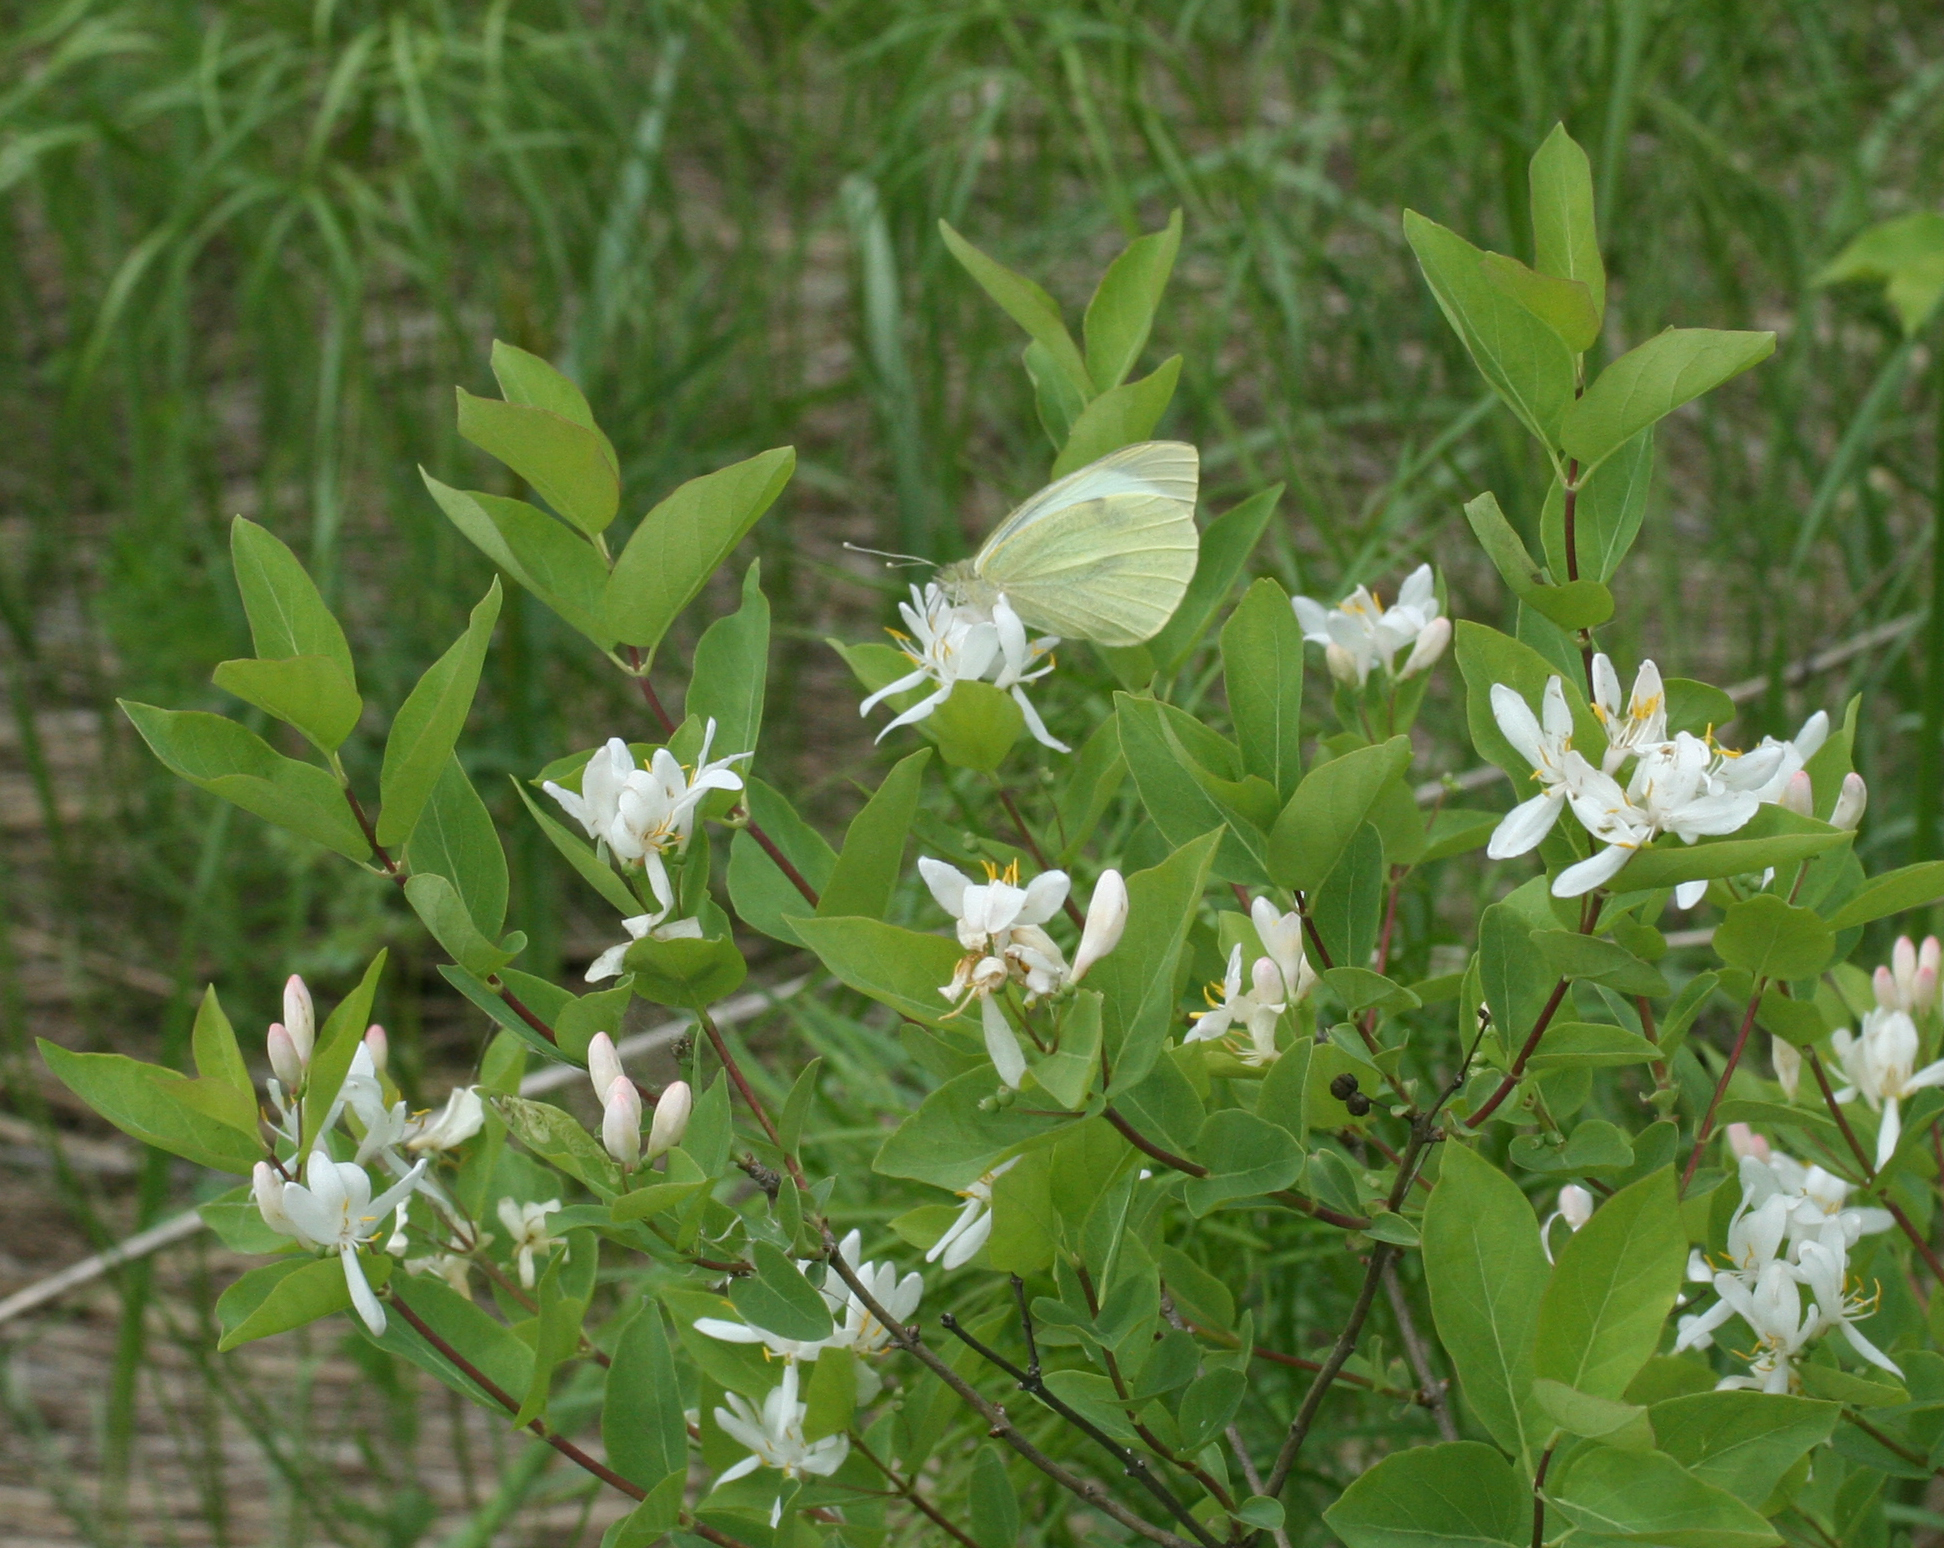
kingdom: Animalia
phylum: Arthropoda
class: Insecta
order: Lepidoptera
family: Pieridae
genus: Pieris
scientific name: Pieris brassicae
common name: Large white
